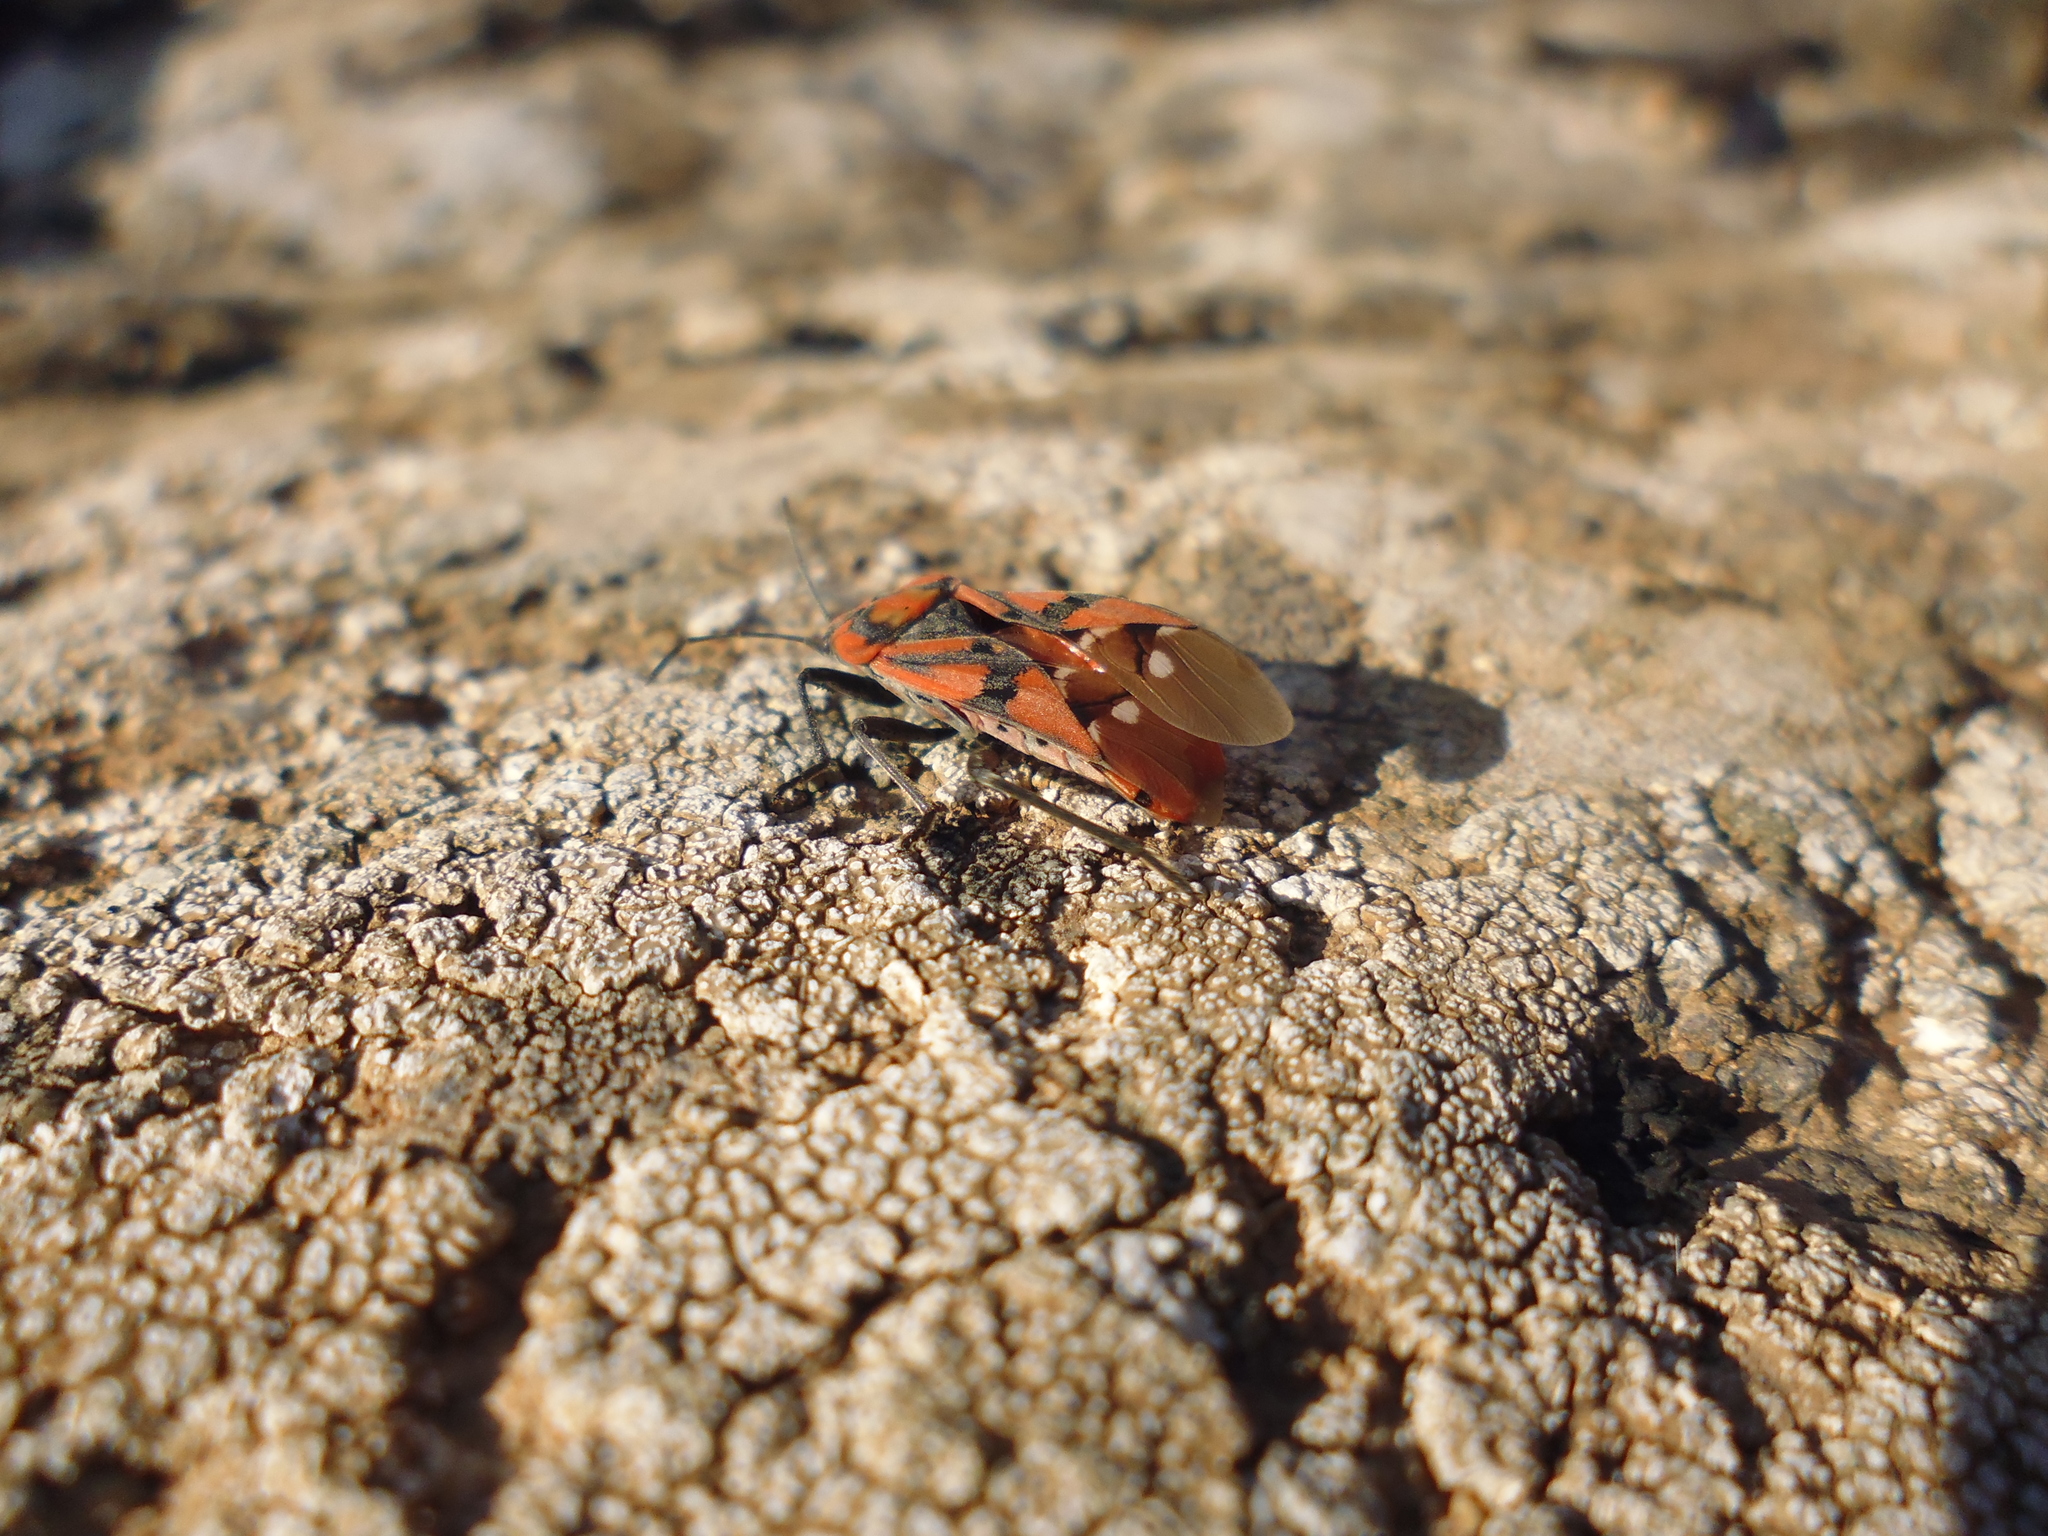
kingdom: Animalia
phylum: Arthropoda
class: Insecta
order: Hemiptera
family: Lygaeidae
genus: Spilostethus
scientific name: Spilostethus pandurus
